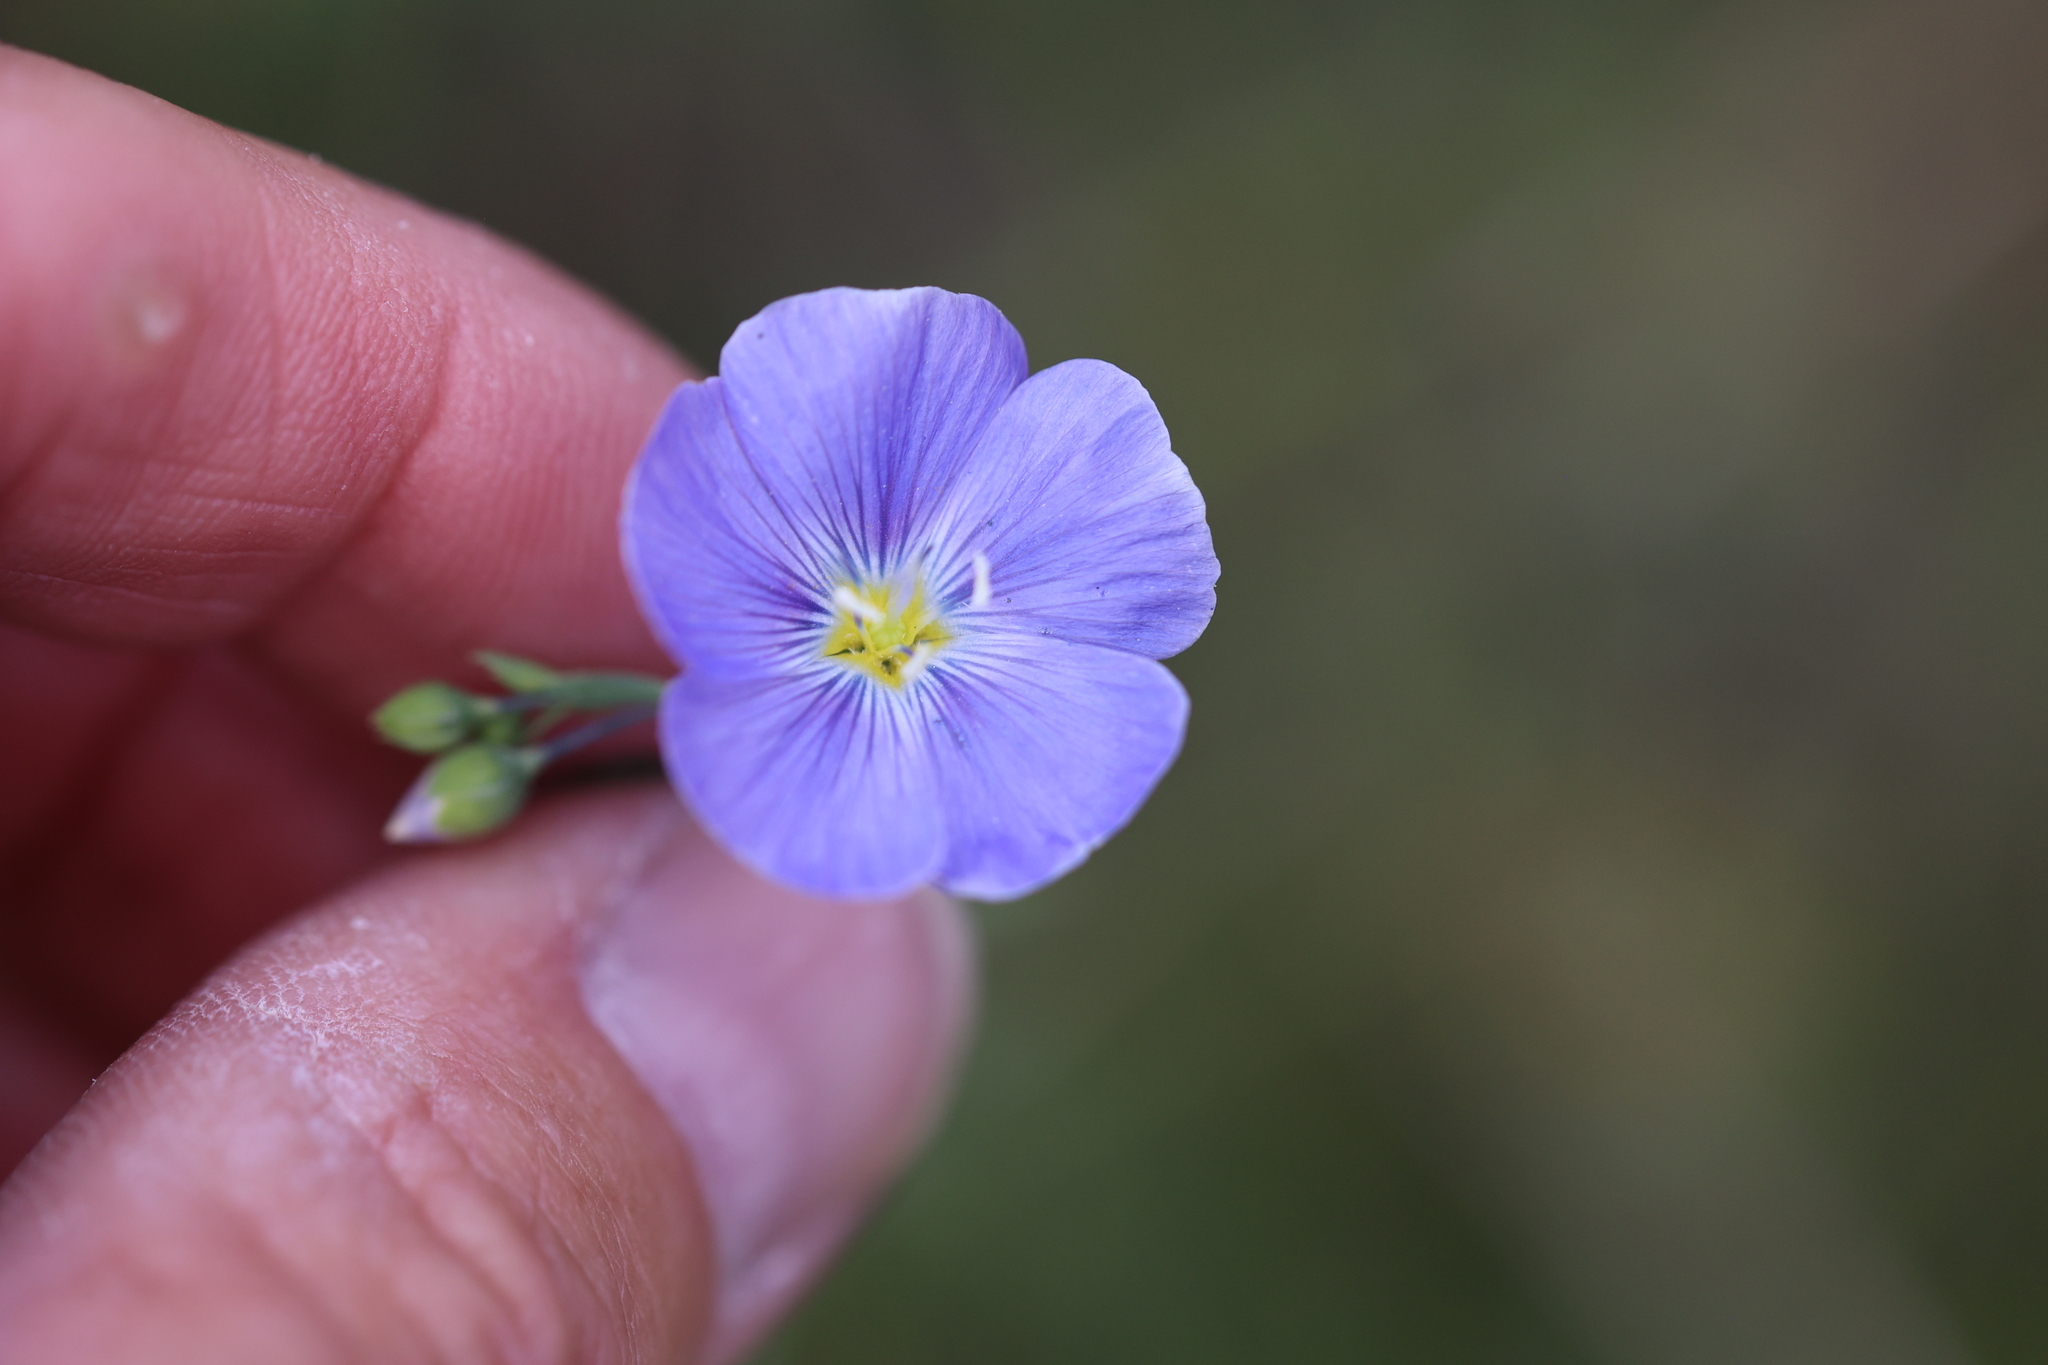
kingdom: Plantae
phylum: Tracheophyta
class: Magnoliopsida
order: Malpighiales
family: Linaceae
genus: Linum
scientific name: Linum lewisii
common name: Prairie flax
